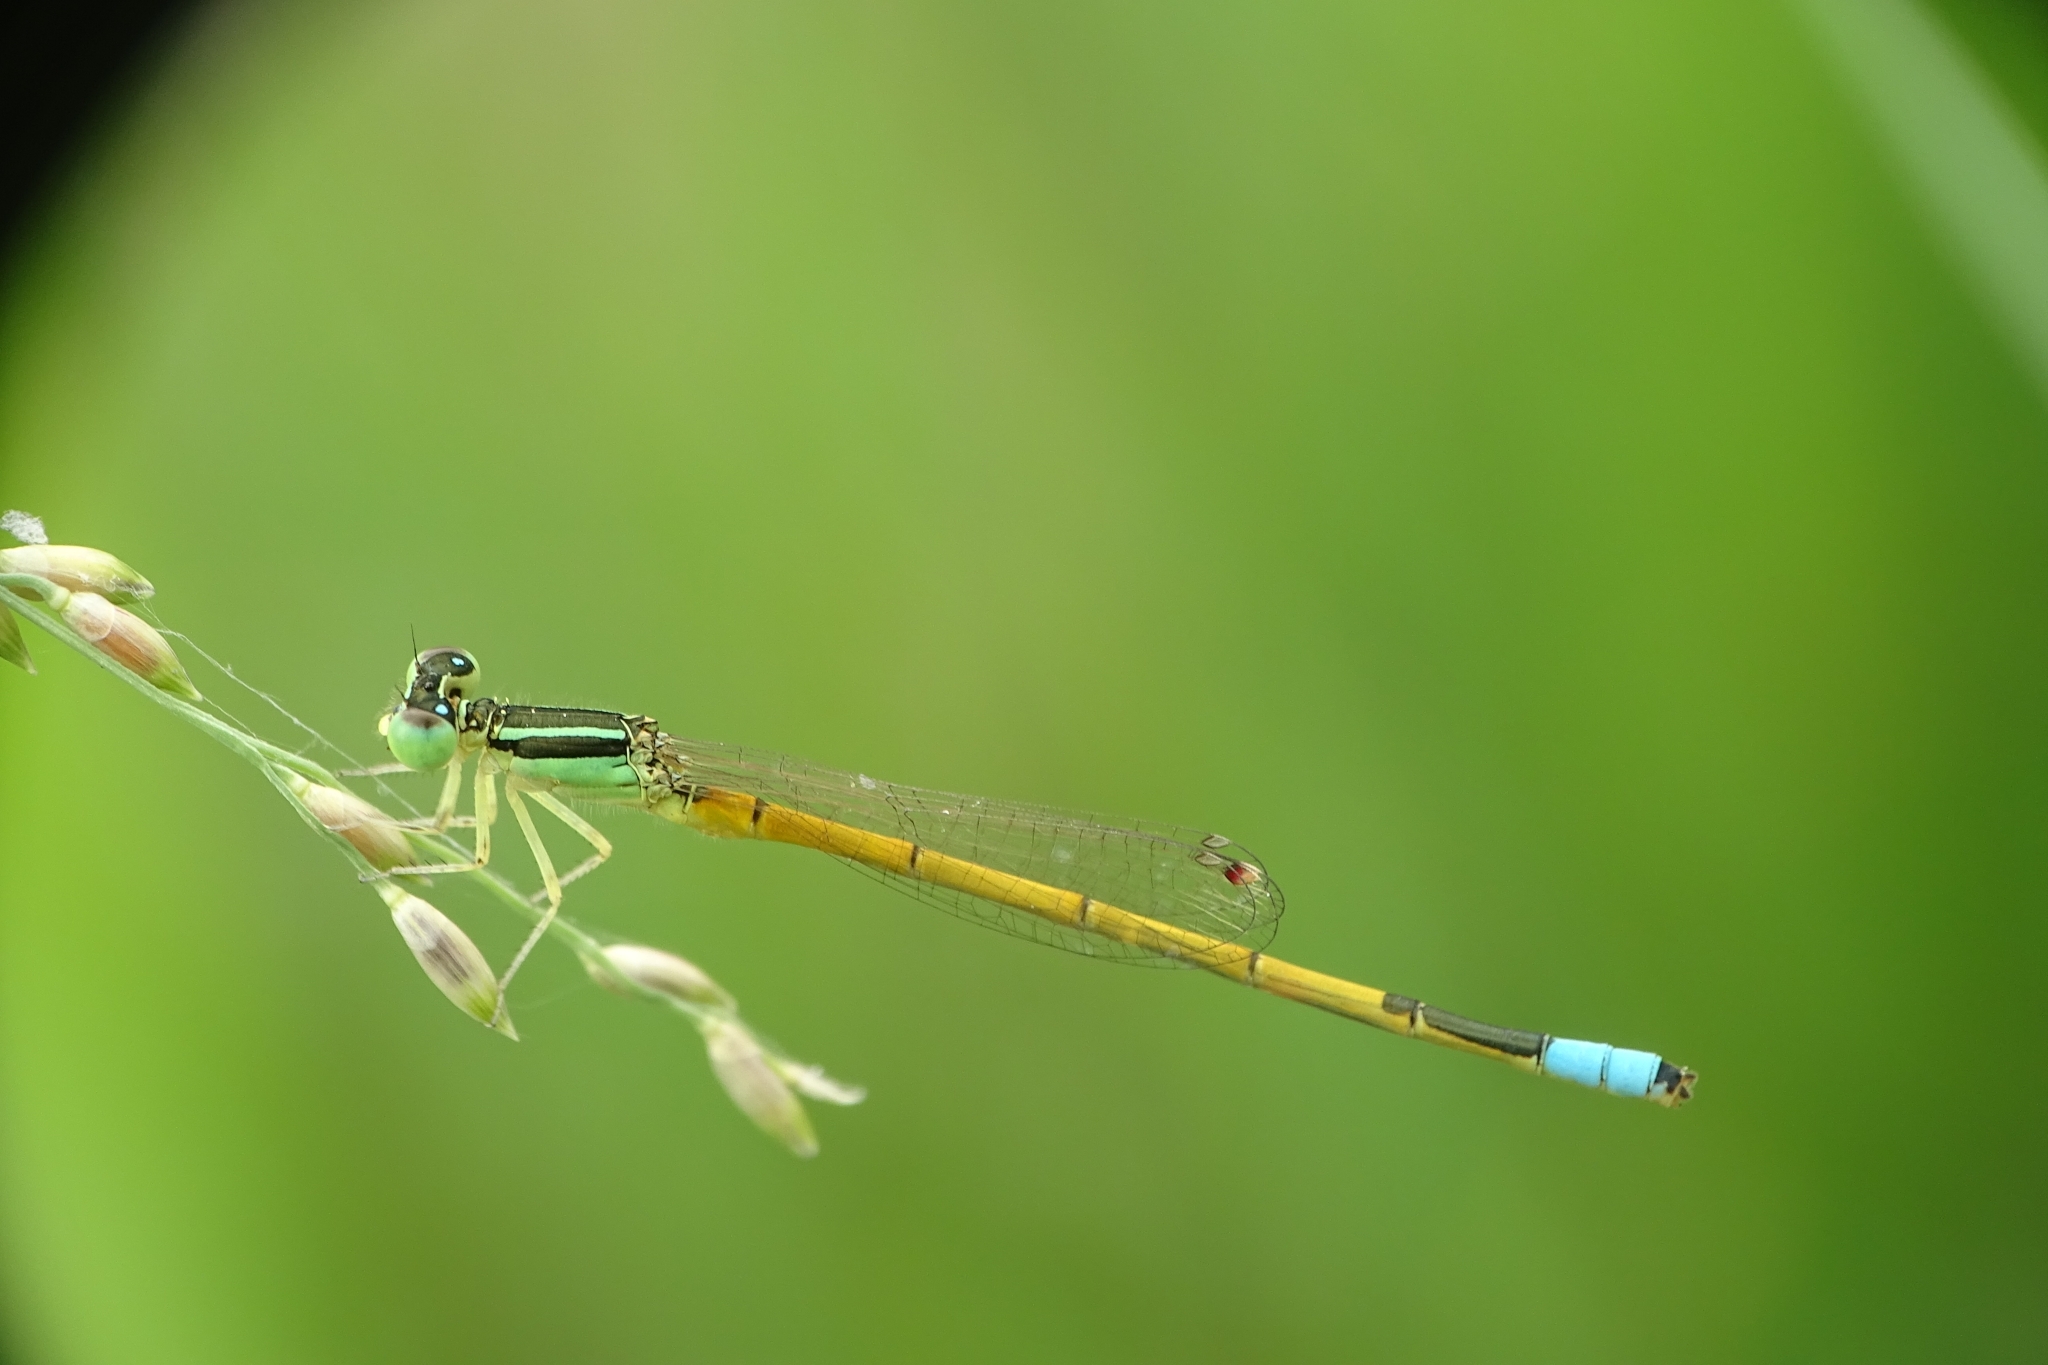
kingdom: Animalia
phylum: Arthropoda
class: Insecta
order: Odonata
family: Coenagrionidae
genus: Ischnura
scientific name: Ischnura rubilio
